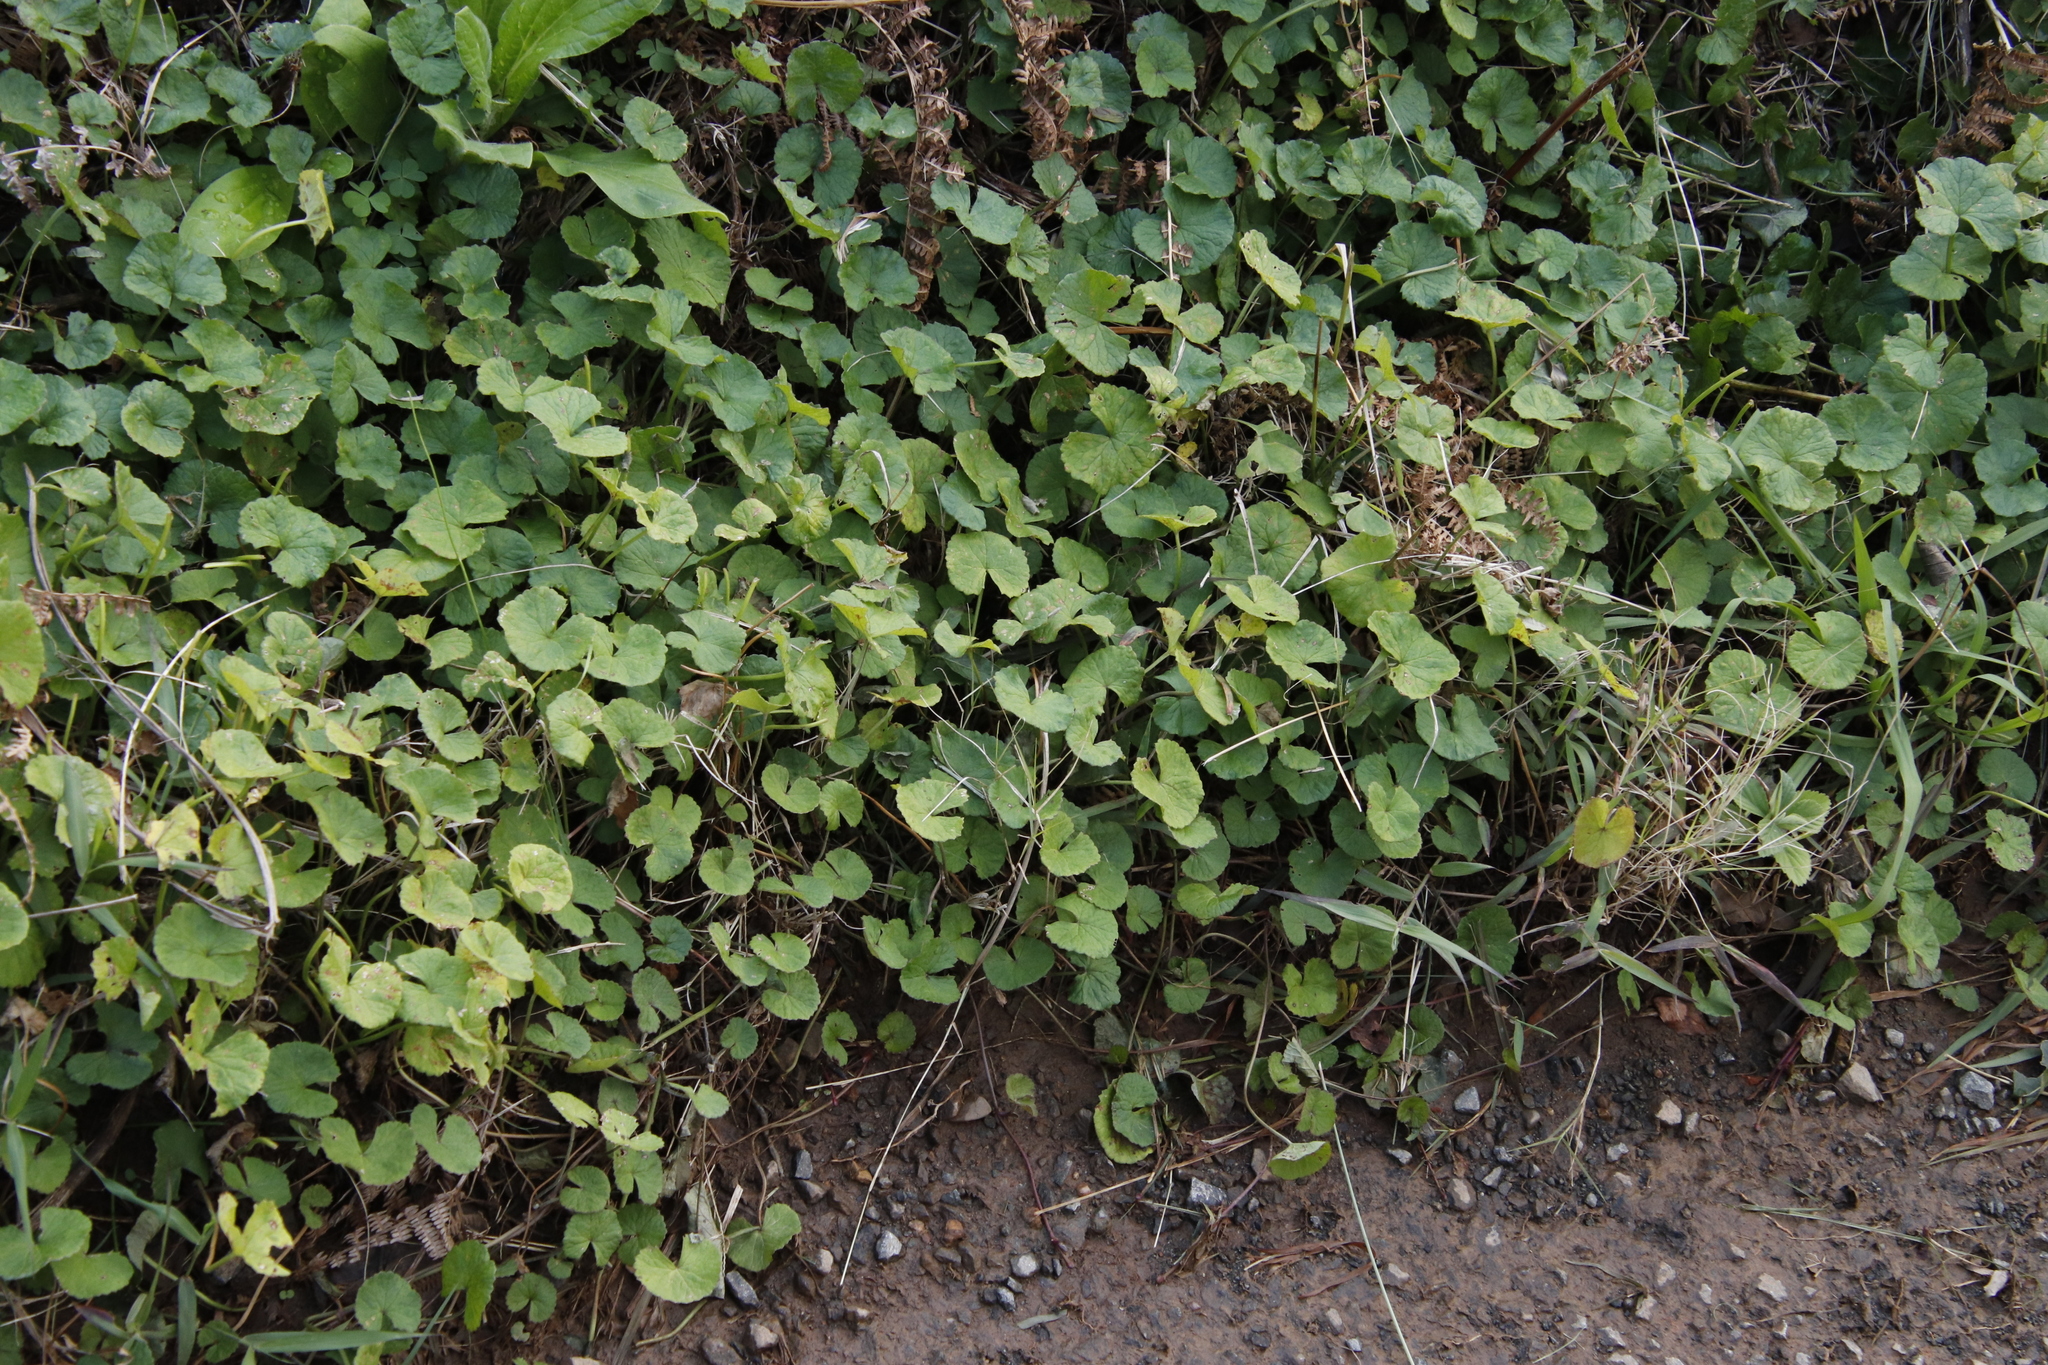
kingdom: Plantae
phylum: Tracheophyta
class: Magnoliopsida
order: Apiales
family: Apiaceae
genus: Centella
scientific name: Centella asiatica
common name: Spadeleaf
